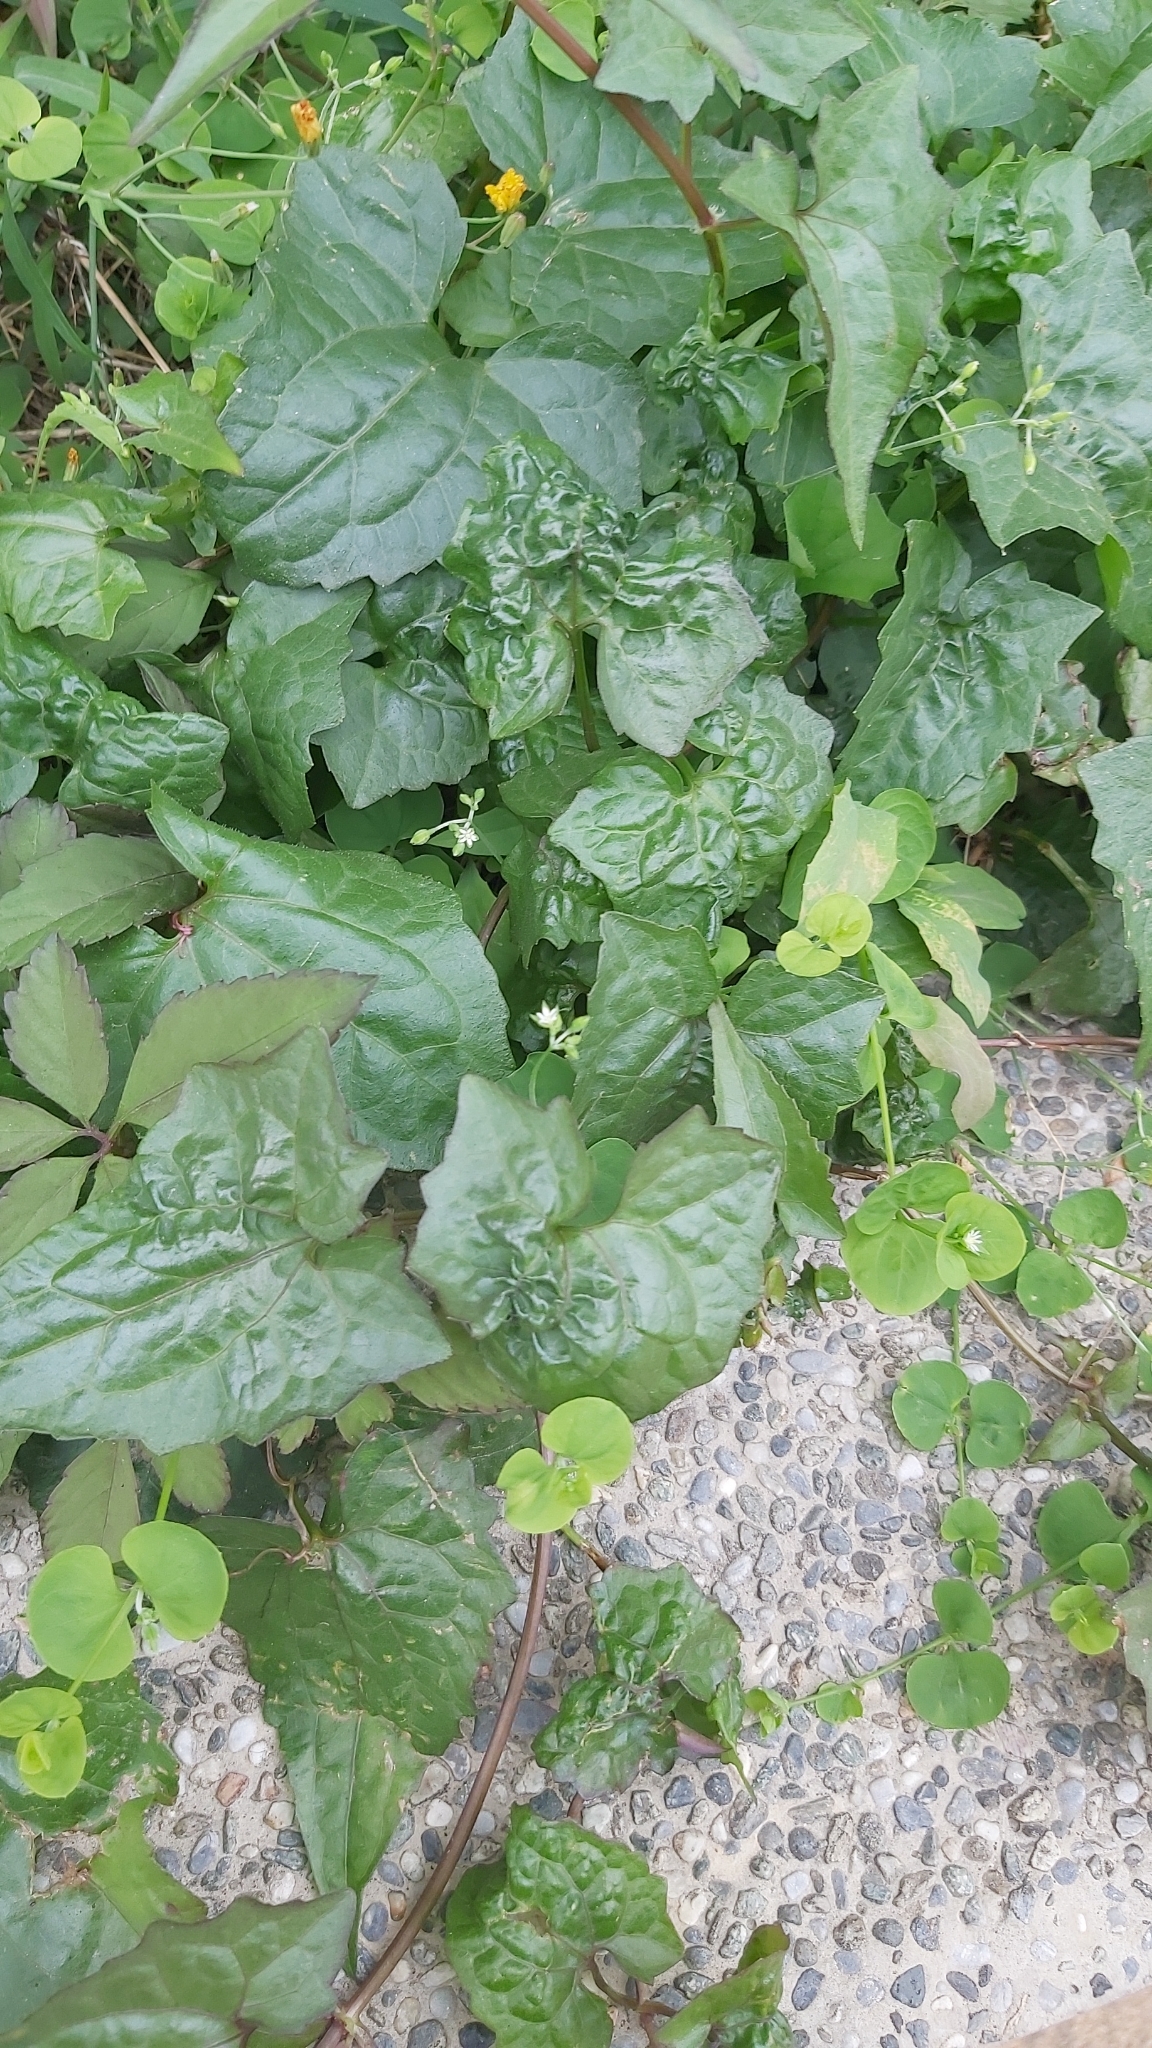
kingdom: Plantae
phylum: Tracheophyta
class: Magnoliopsida
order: Asterales
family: Asteraceae
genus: Mikania
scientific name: Mikania micrantha
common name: Mile-a-minute
